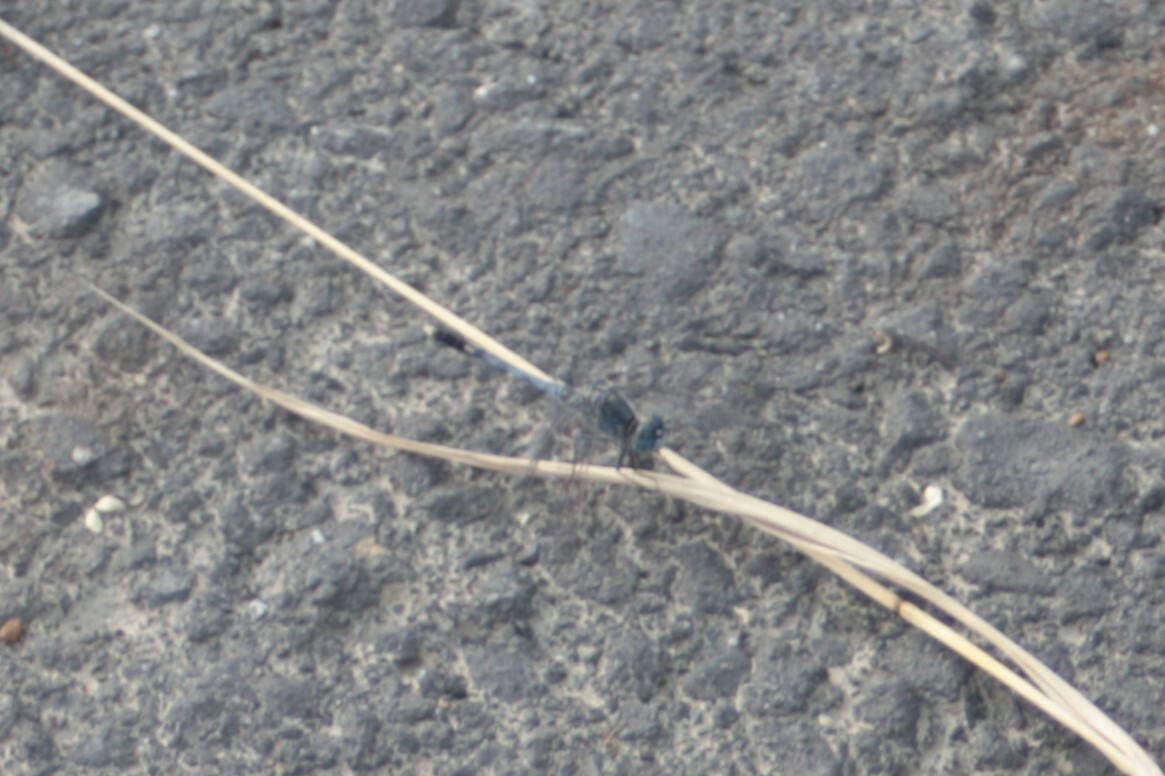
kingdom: Animalia
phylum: Arthropoda
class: Insecta
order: Odonata
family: Libellulidae
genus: Diplacodes
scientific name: Diplacodes trivialis
